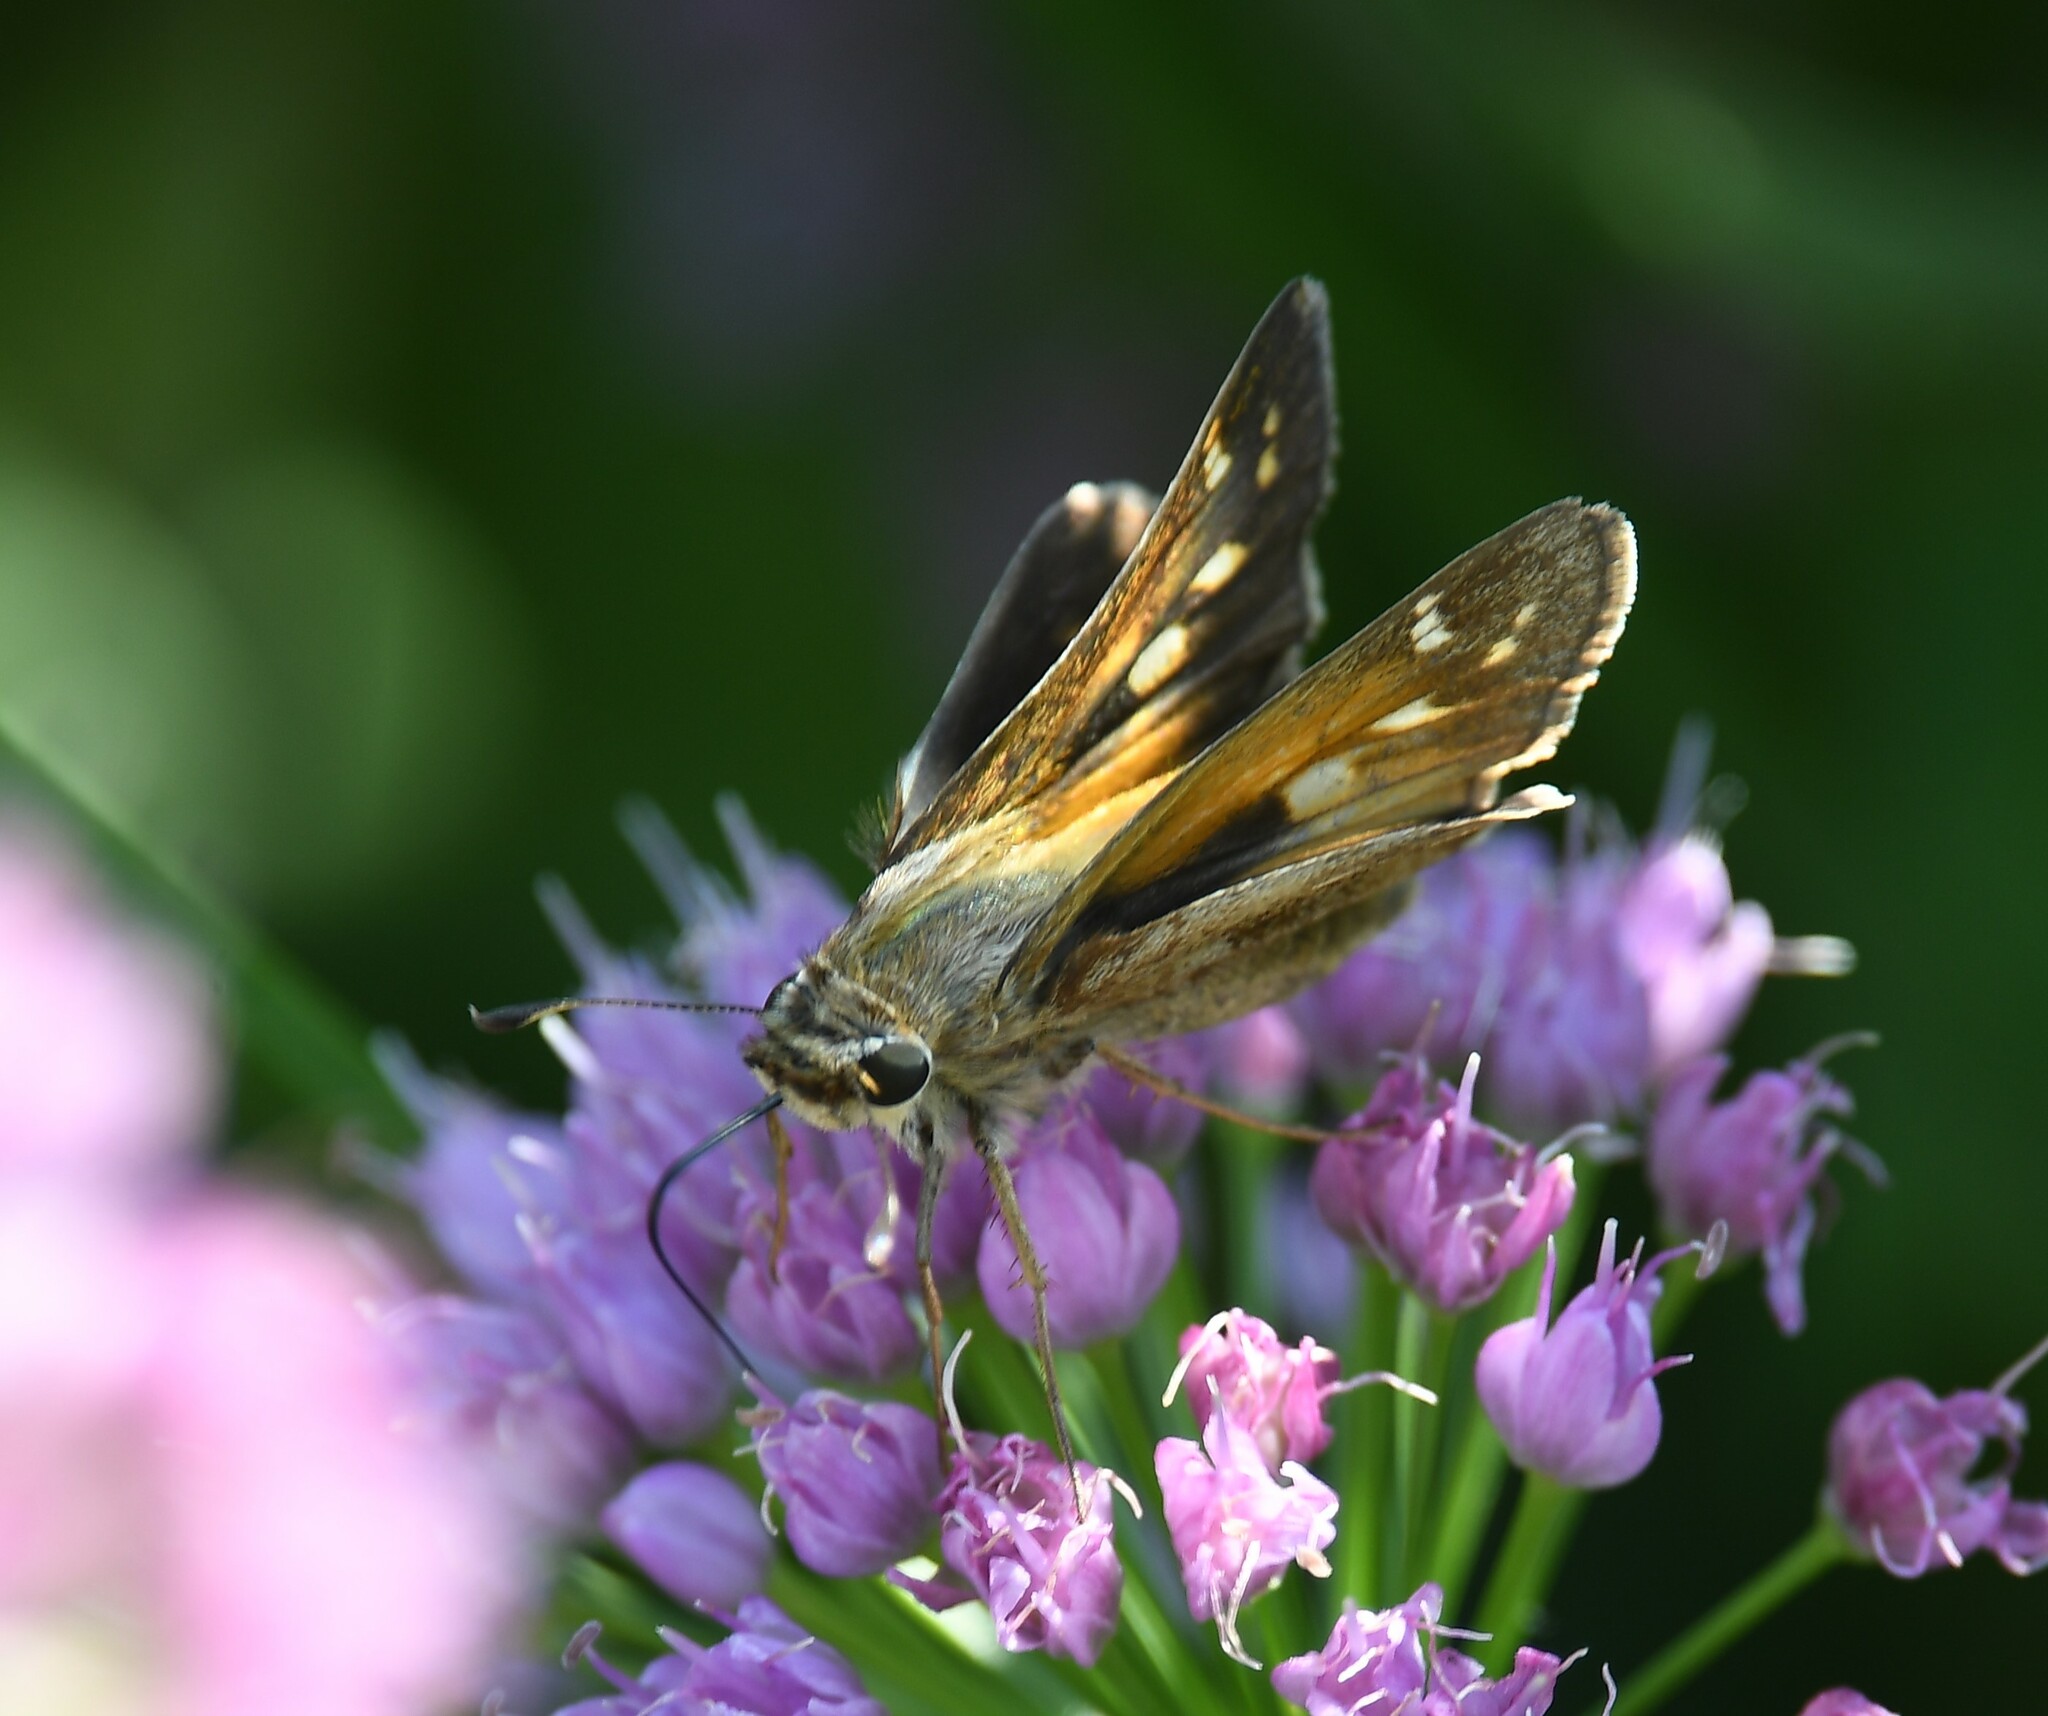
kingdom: Animalia
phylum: Arthropoda
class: Insecta
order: Lepidoptera
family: Hesperiidae
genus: Atalopedes
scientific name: Atalopedes
